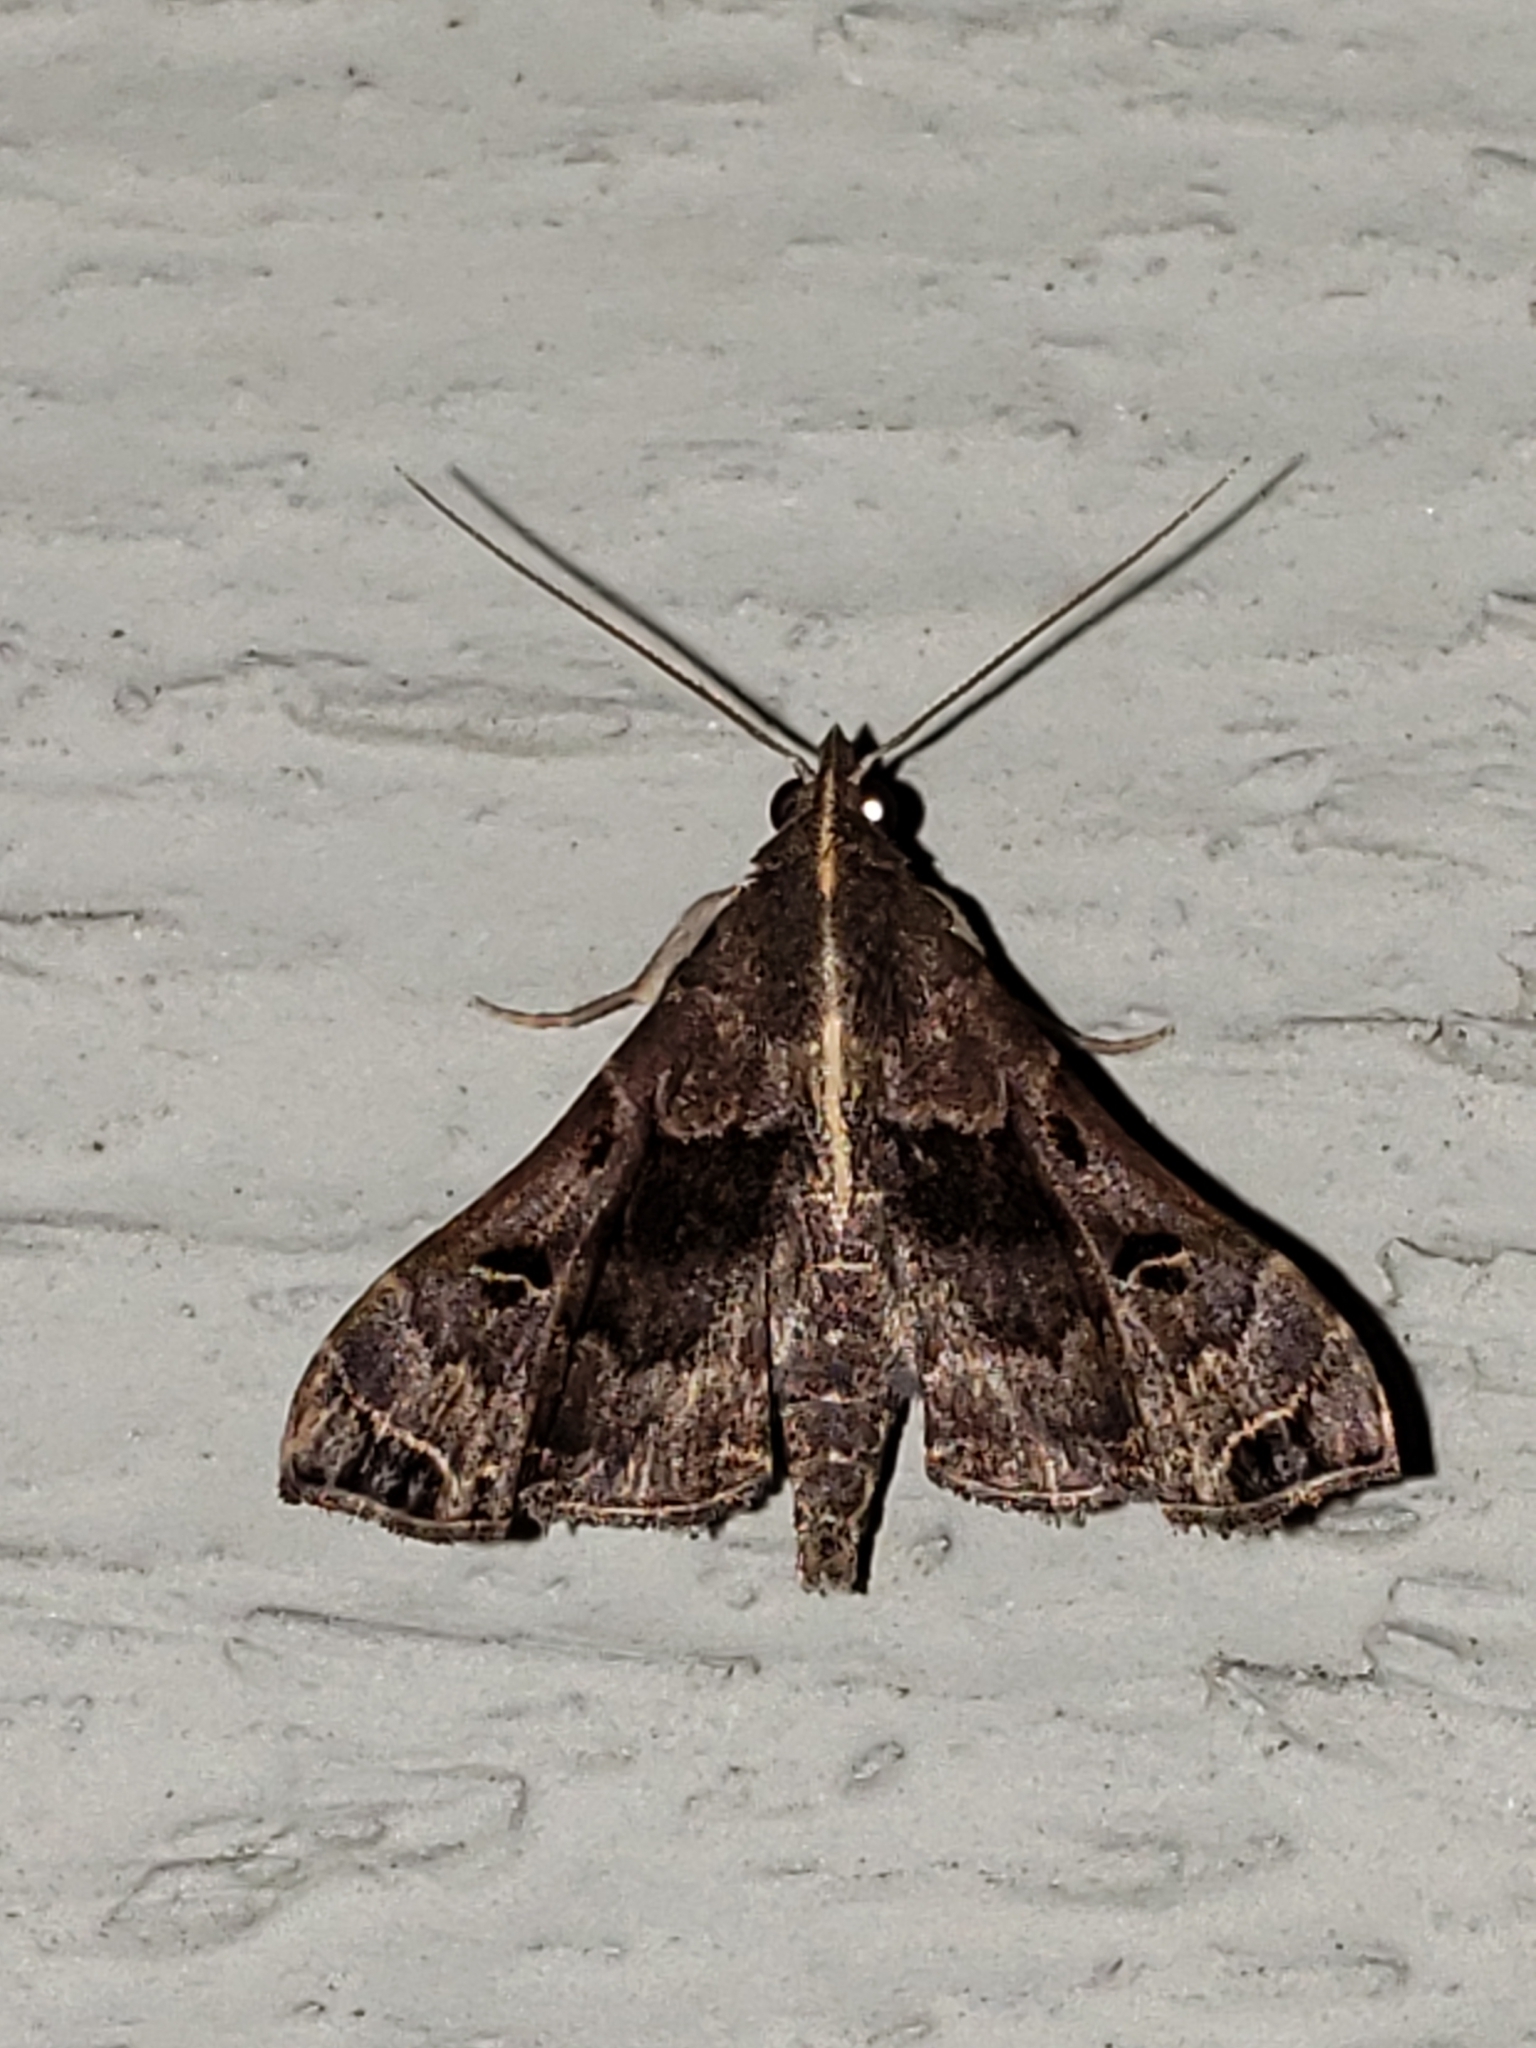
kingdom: Animalia
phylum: Arthropoda
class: Insecta
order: Lepidoptera
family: Erebidae
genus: Palthis
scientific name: Palthis asopialis
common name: Faint-spotted palthis moth
